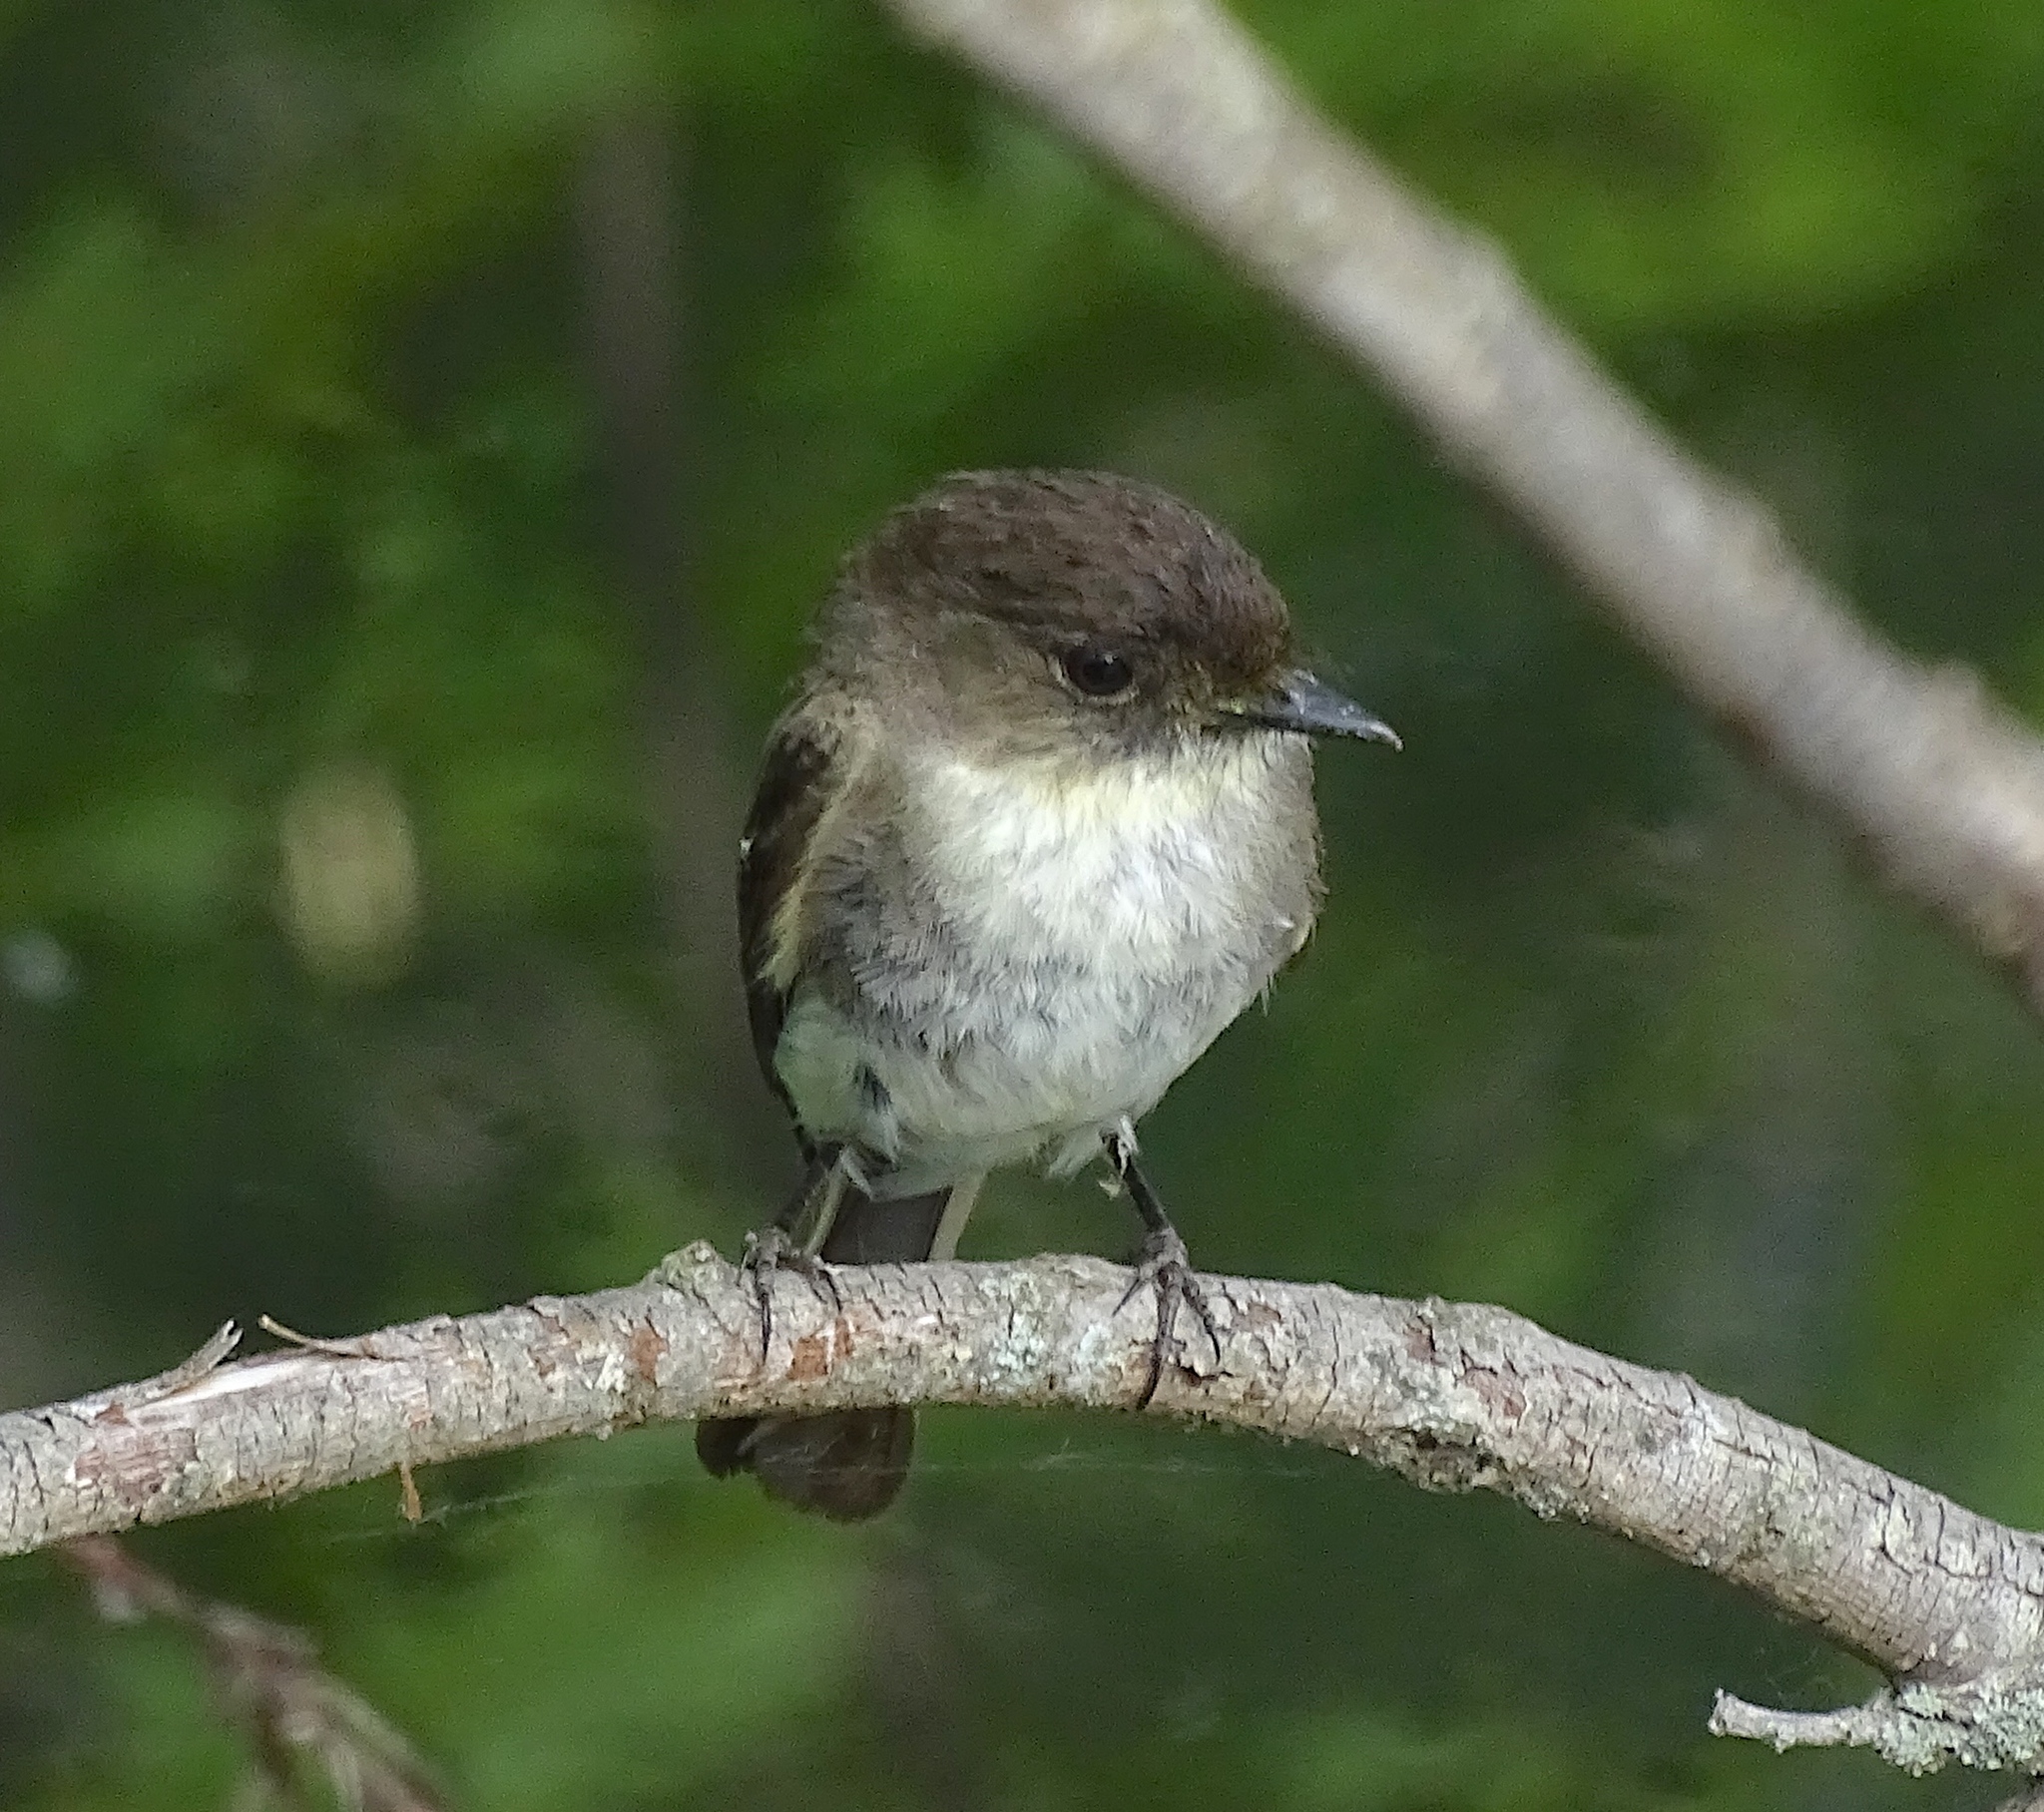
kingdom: Animalia
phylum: Chordata
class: Aves
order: Passeriformes
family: Tyrannidae
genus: Sayornis
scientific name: Sayornis phoebe
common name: Eastern phoebe
